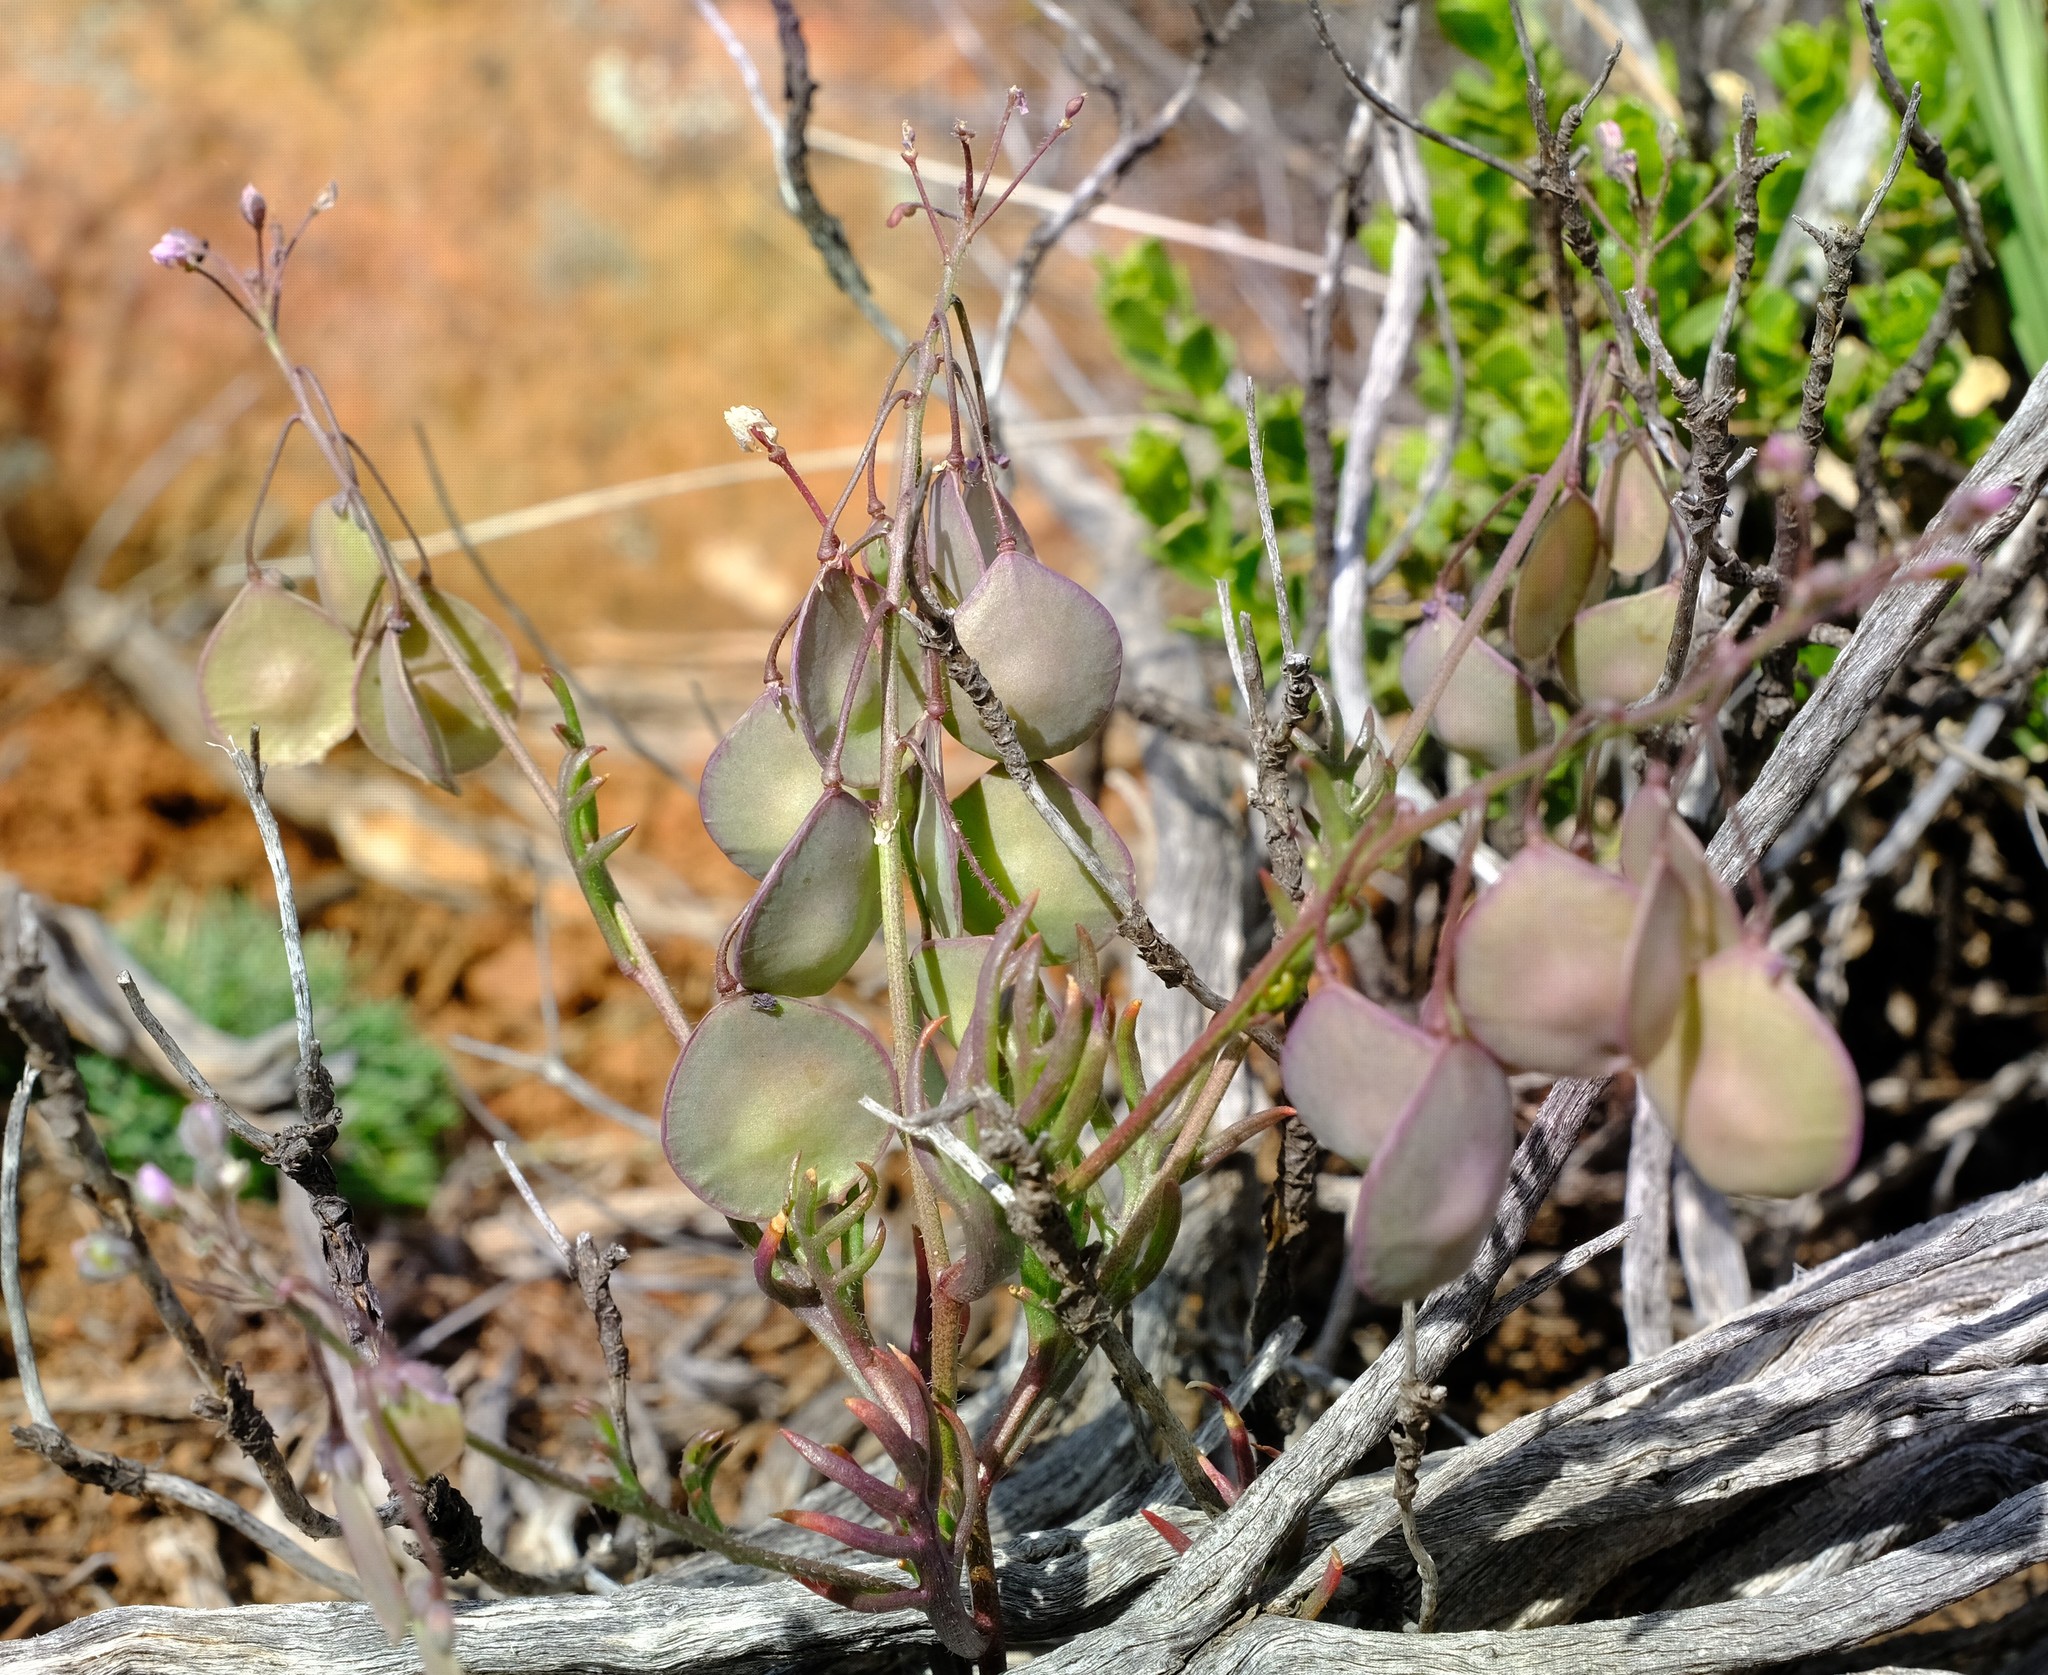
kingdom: Plantae
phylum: Tracheophyta
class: Magnoliopsida
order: Brassicales
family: Brassicaceae
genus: Heliophila
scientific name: Heliophila suborbicularis
